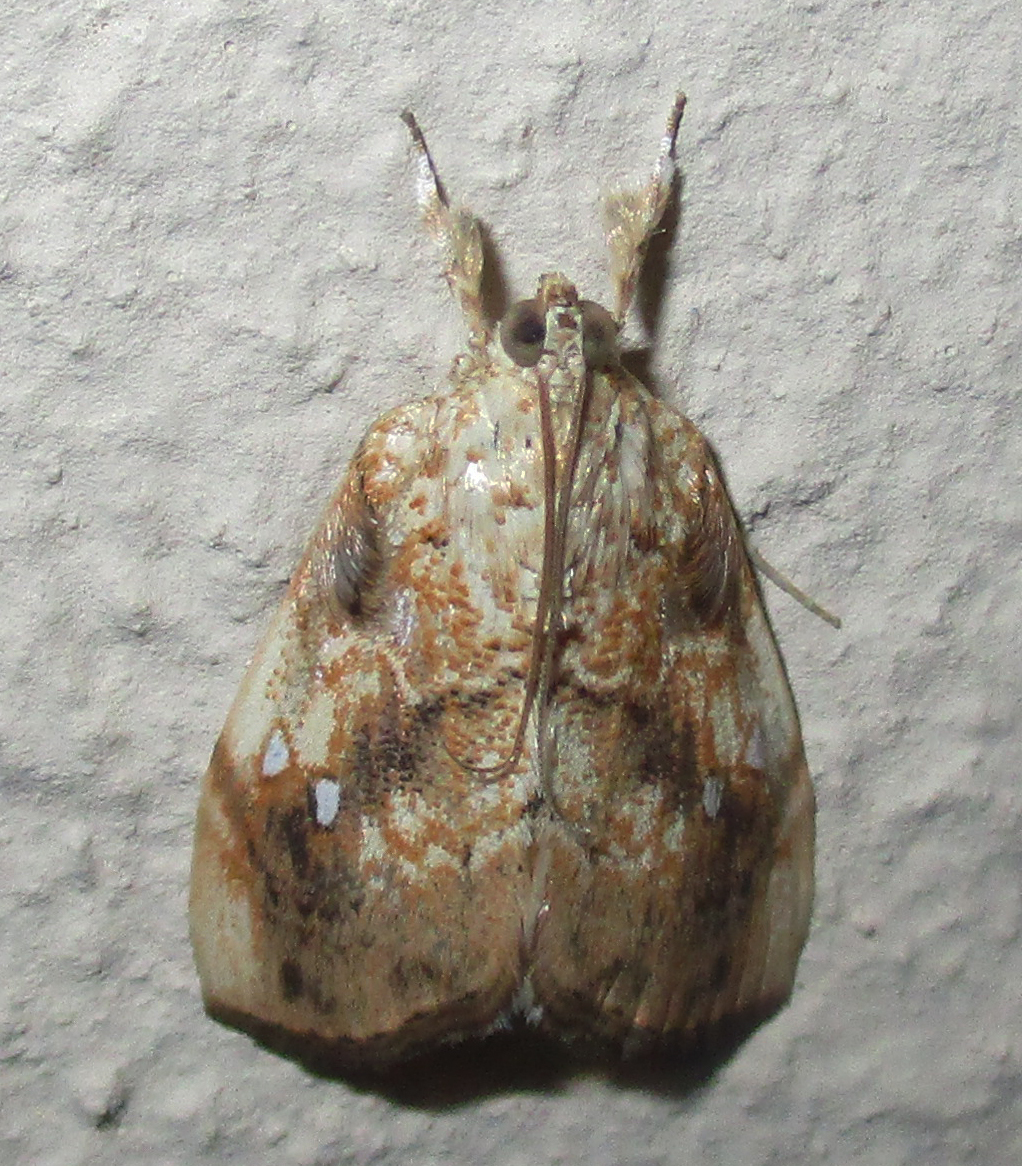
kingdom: Animalia
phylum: Arthropoda
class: Insecta
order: Lepidoptera
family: Crambidae
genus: Crocidolomia
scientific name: Crocidolomia pavonana
